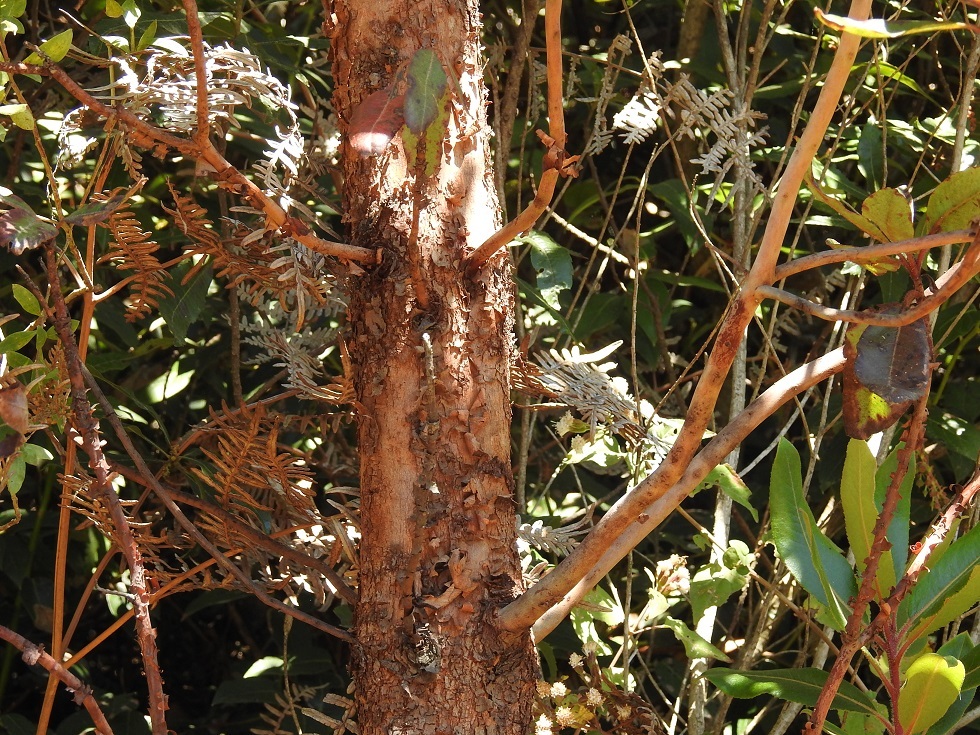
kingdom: Plantae
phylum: Tracheophyta
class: Magnoliopsida
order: Ericales
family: Ericaceae
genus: Arbutus
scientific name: Arbutus xalapensis
